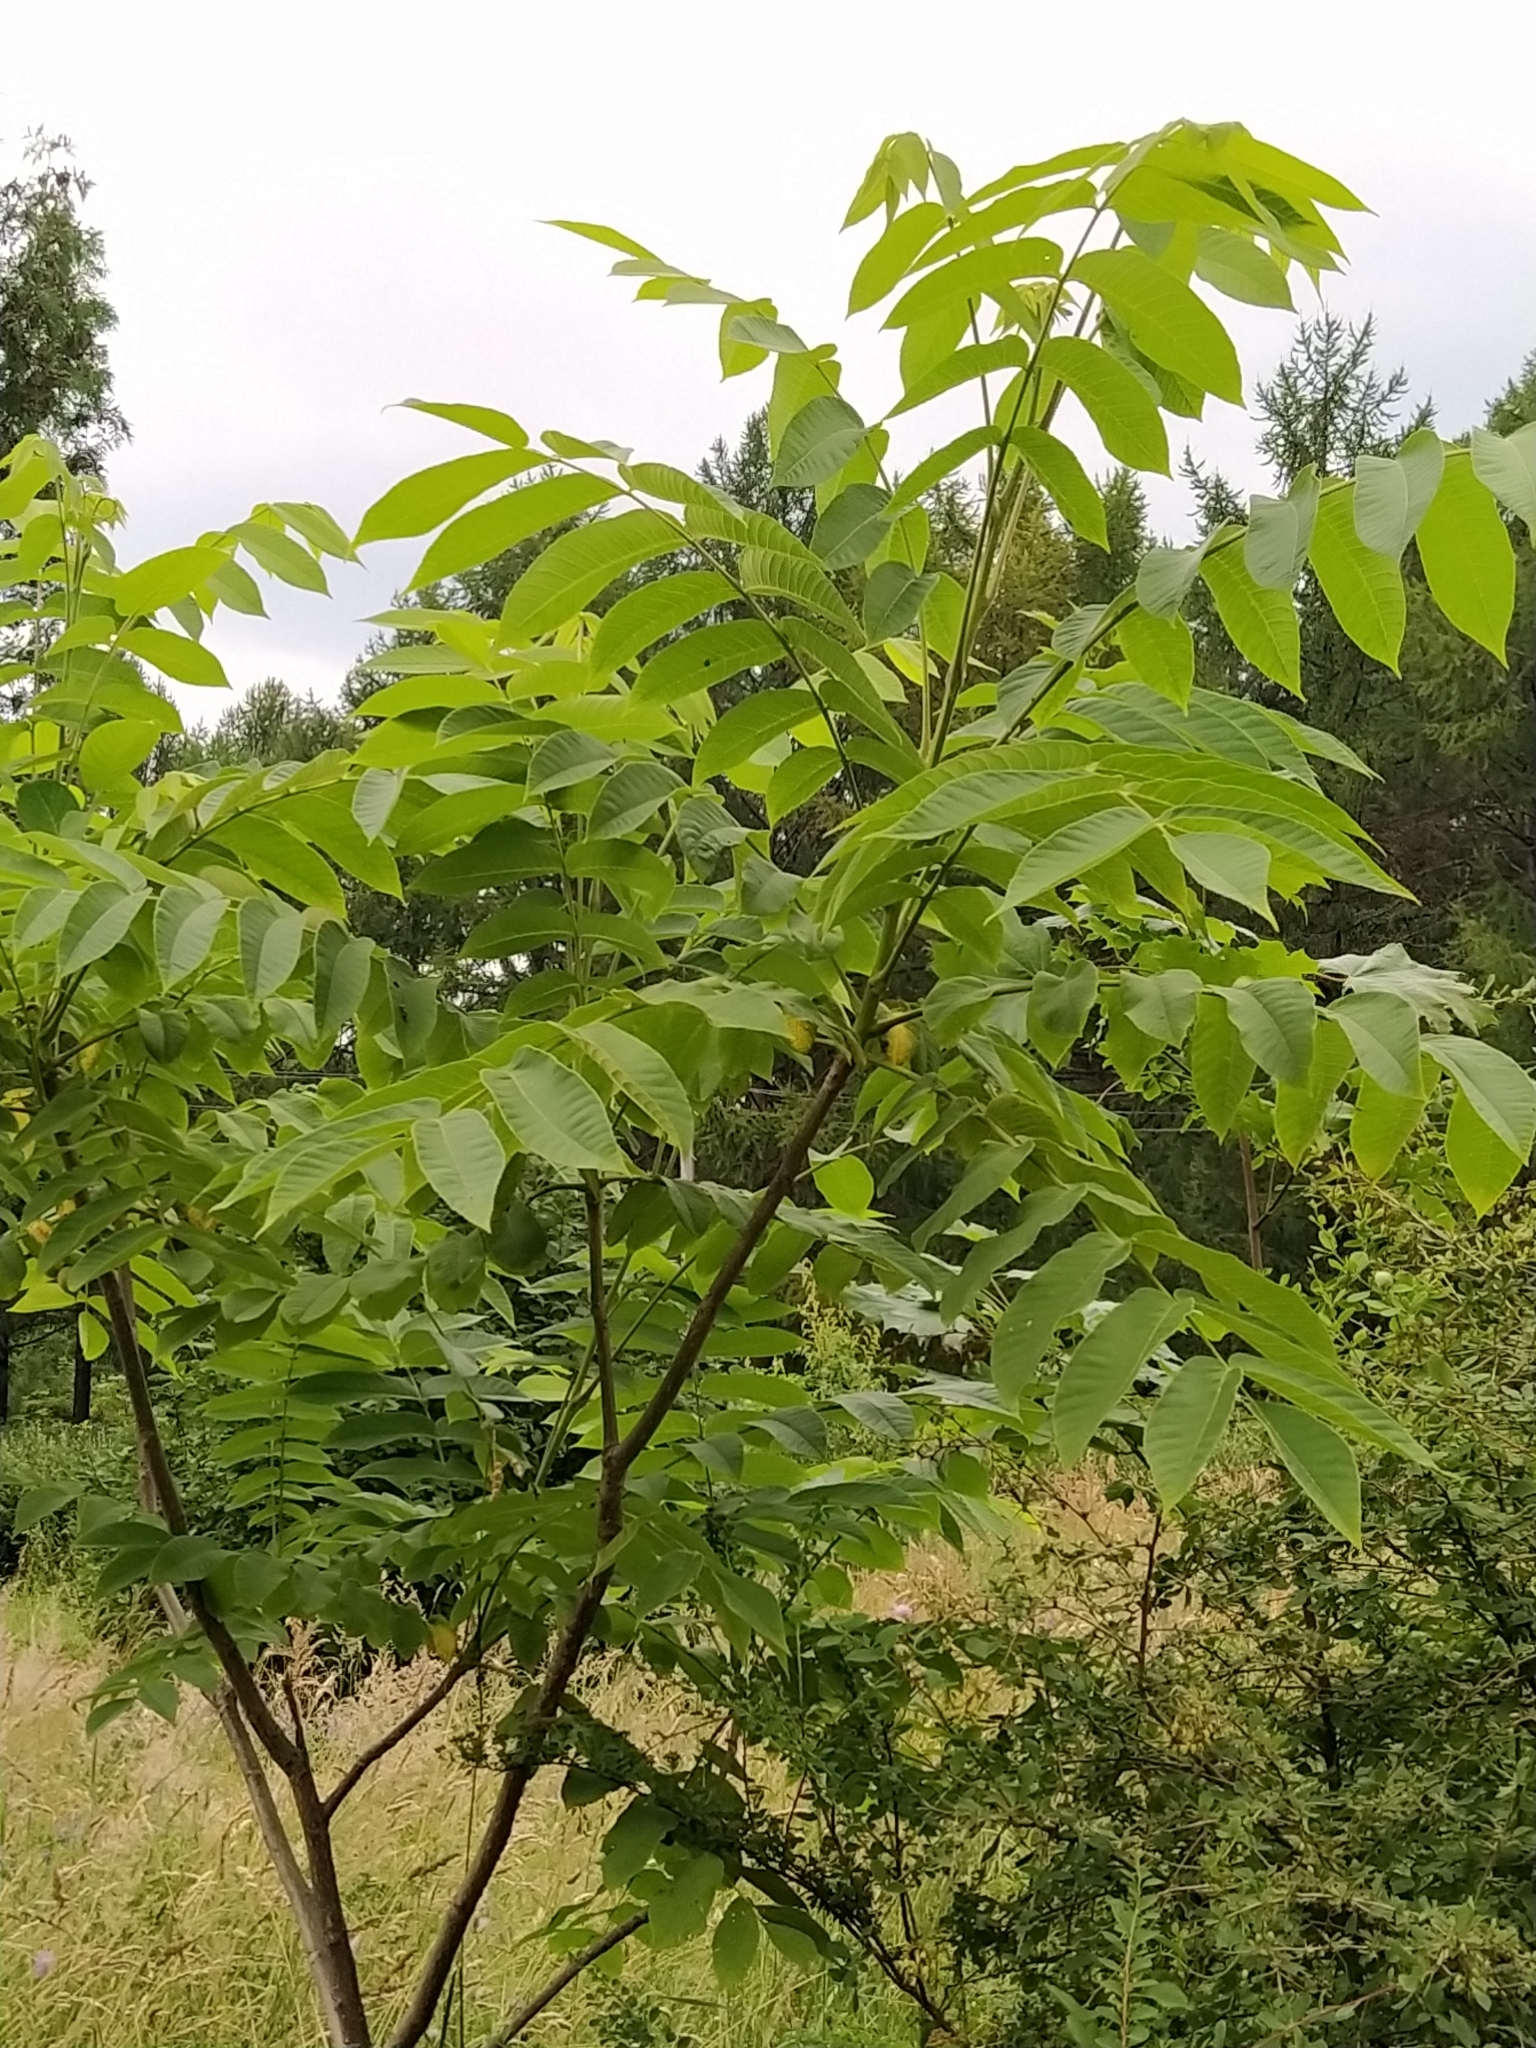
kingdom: Plantae
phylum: Tracheophyta
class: Magnoliopsida
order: Fagales
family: Juglandaceae
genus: Juglans
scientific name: Juglans mandshurica
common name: Manchurian walnut
